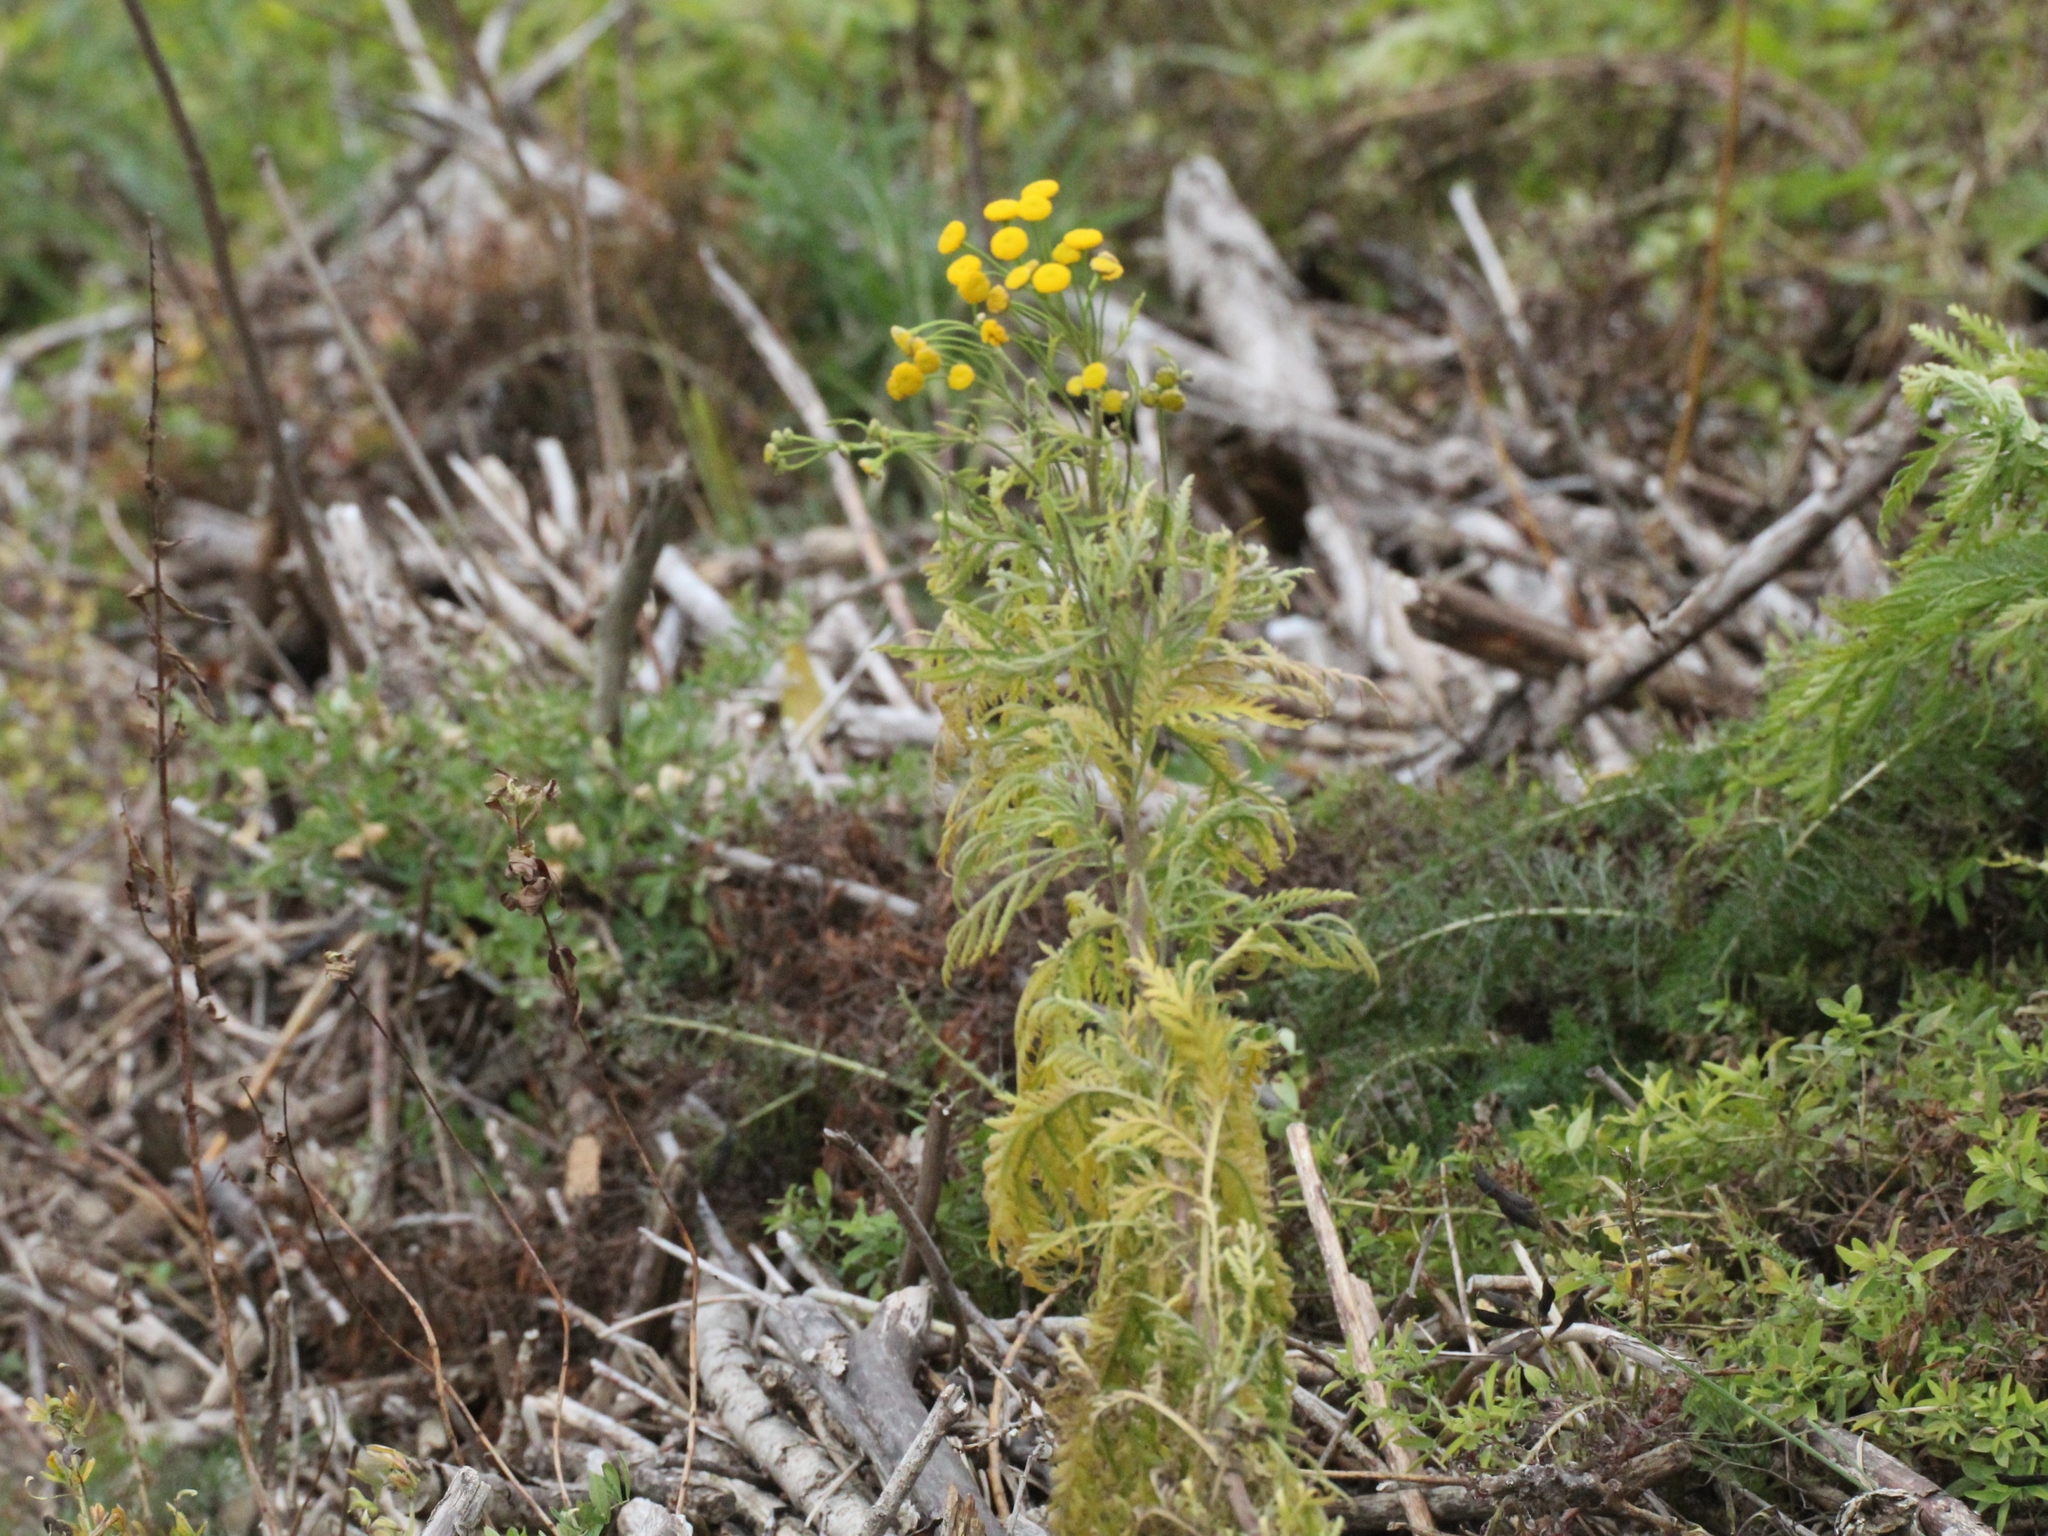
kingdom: Plantae
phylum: Tracheophyta
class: Magnoliopsida
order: Asterales
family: Asteraceae
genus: Tanacetum
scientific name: Tanacetum vulgare
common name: Common tansy
